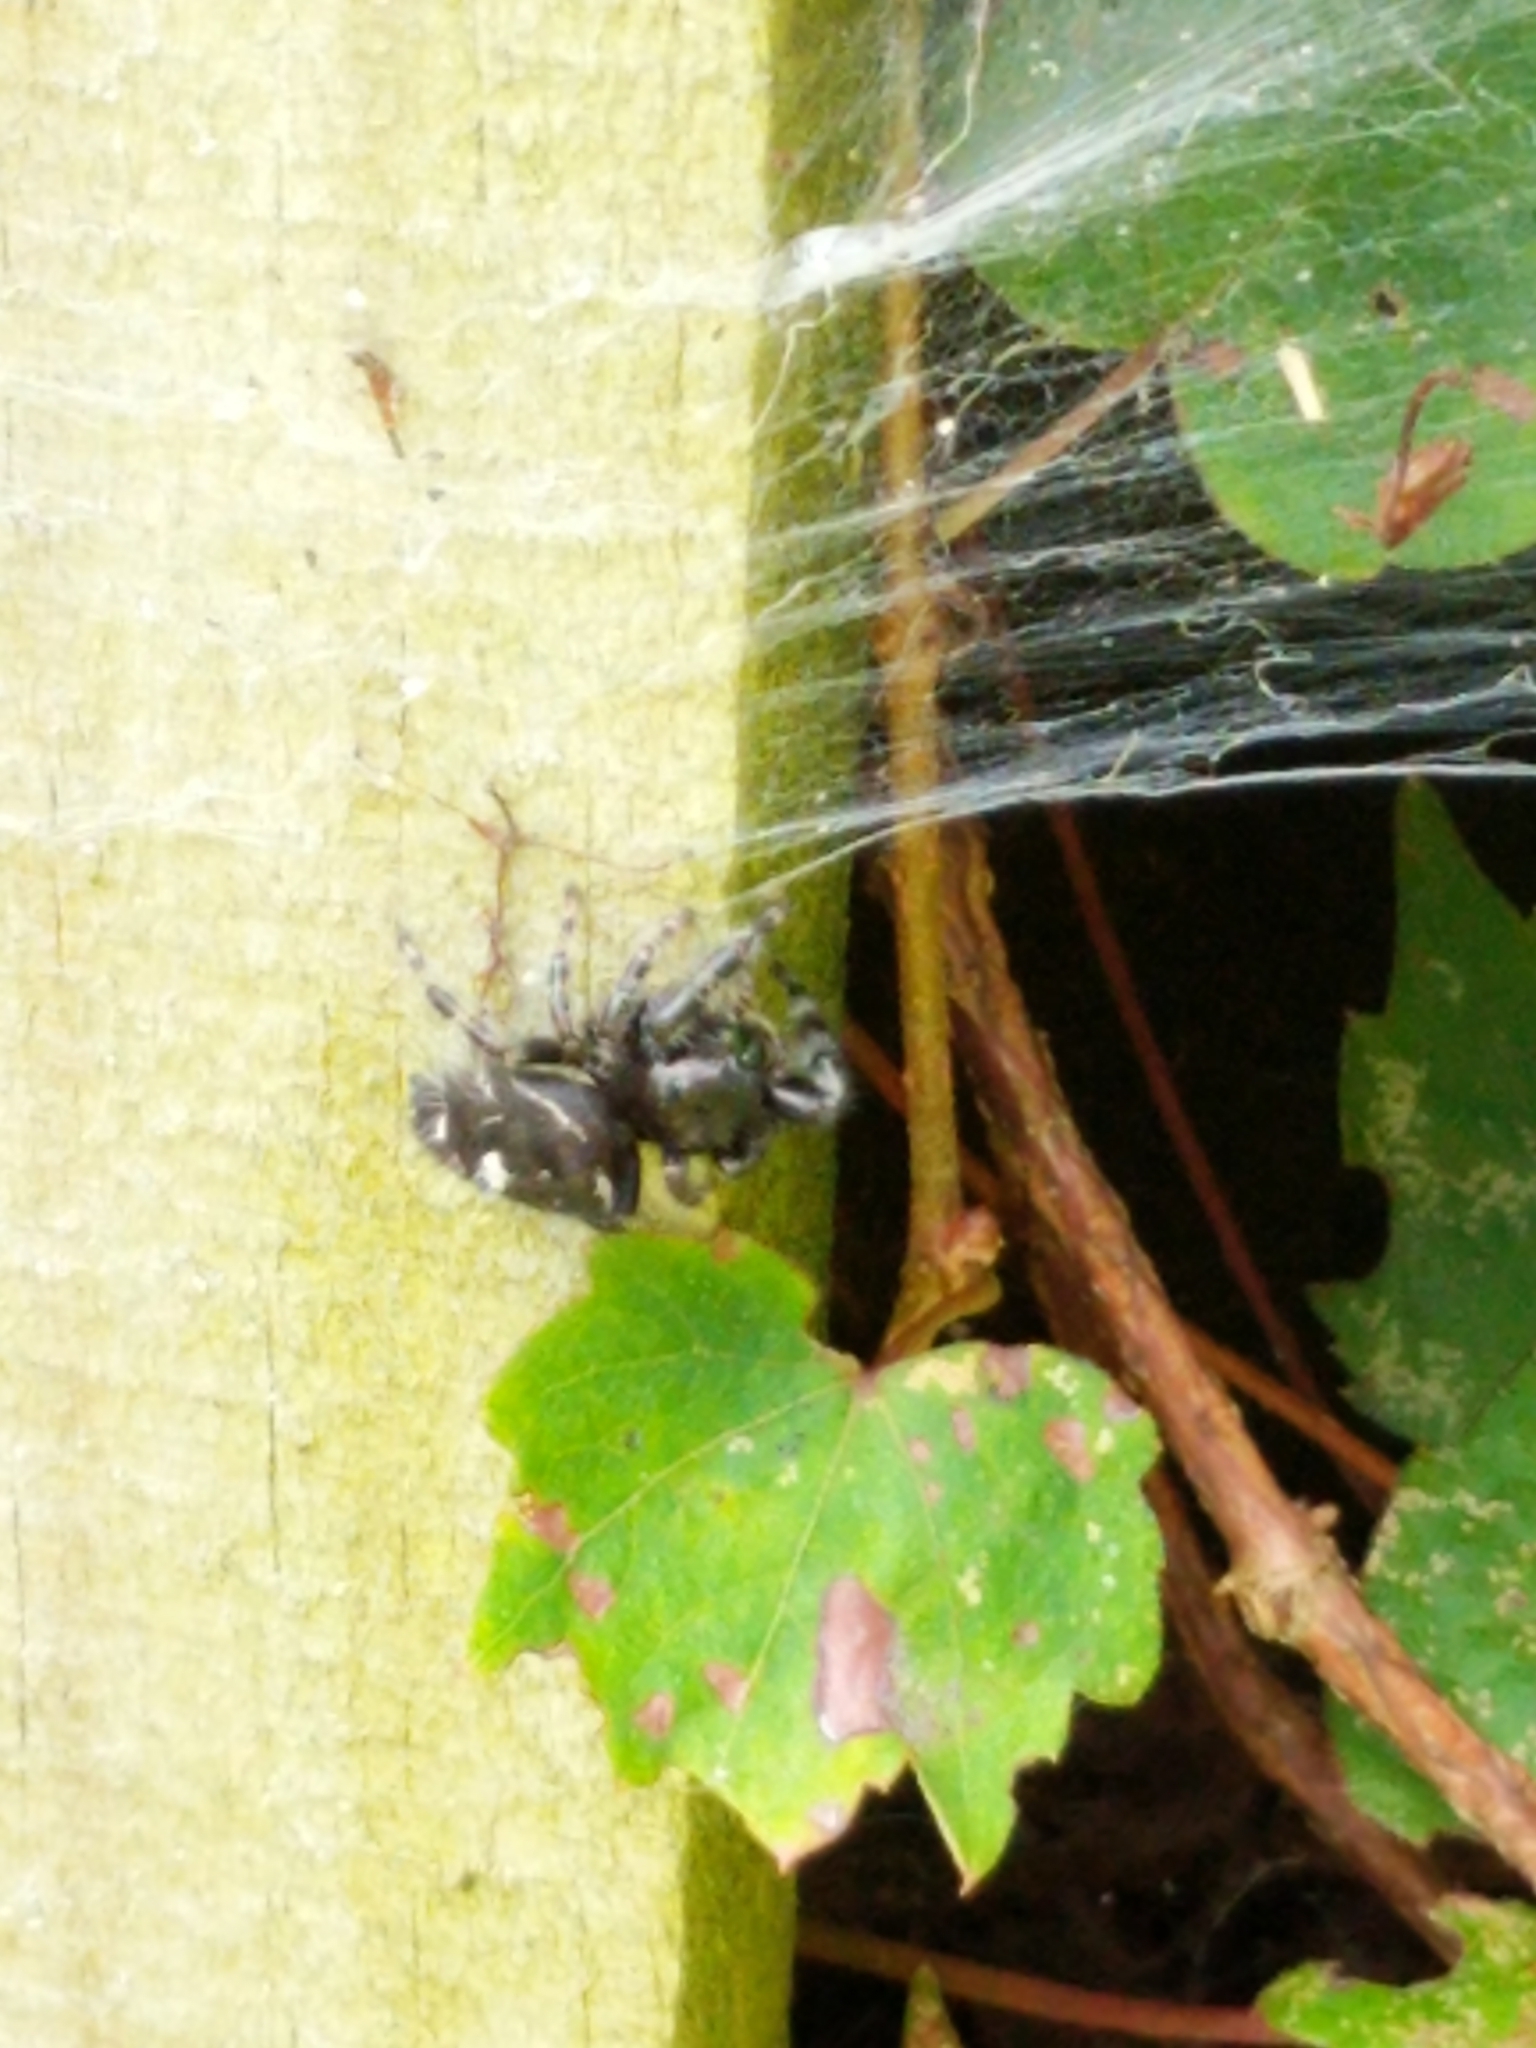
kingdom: Animalia
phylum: Arthropoda
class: Arachnida
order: Araneae
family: Salticidae
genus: Phidippus
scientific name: Phidippus audax
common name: Bold jumper
